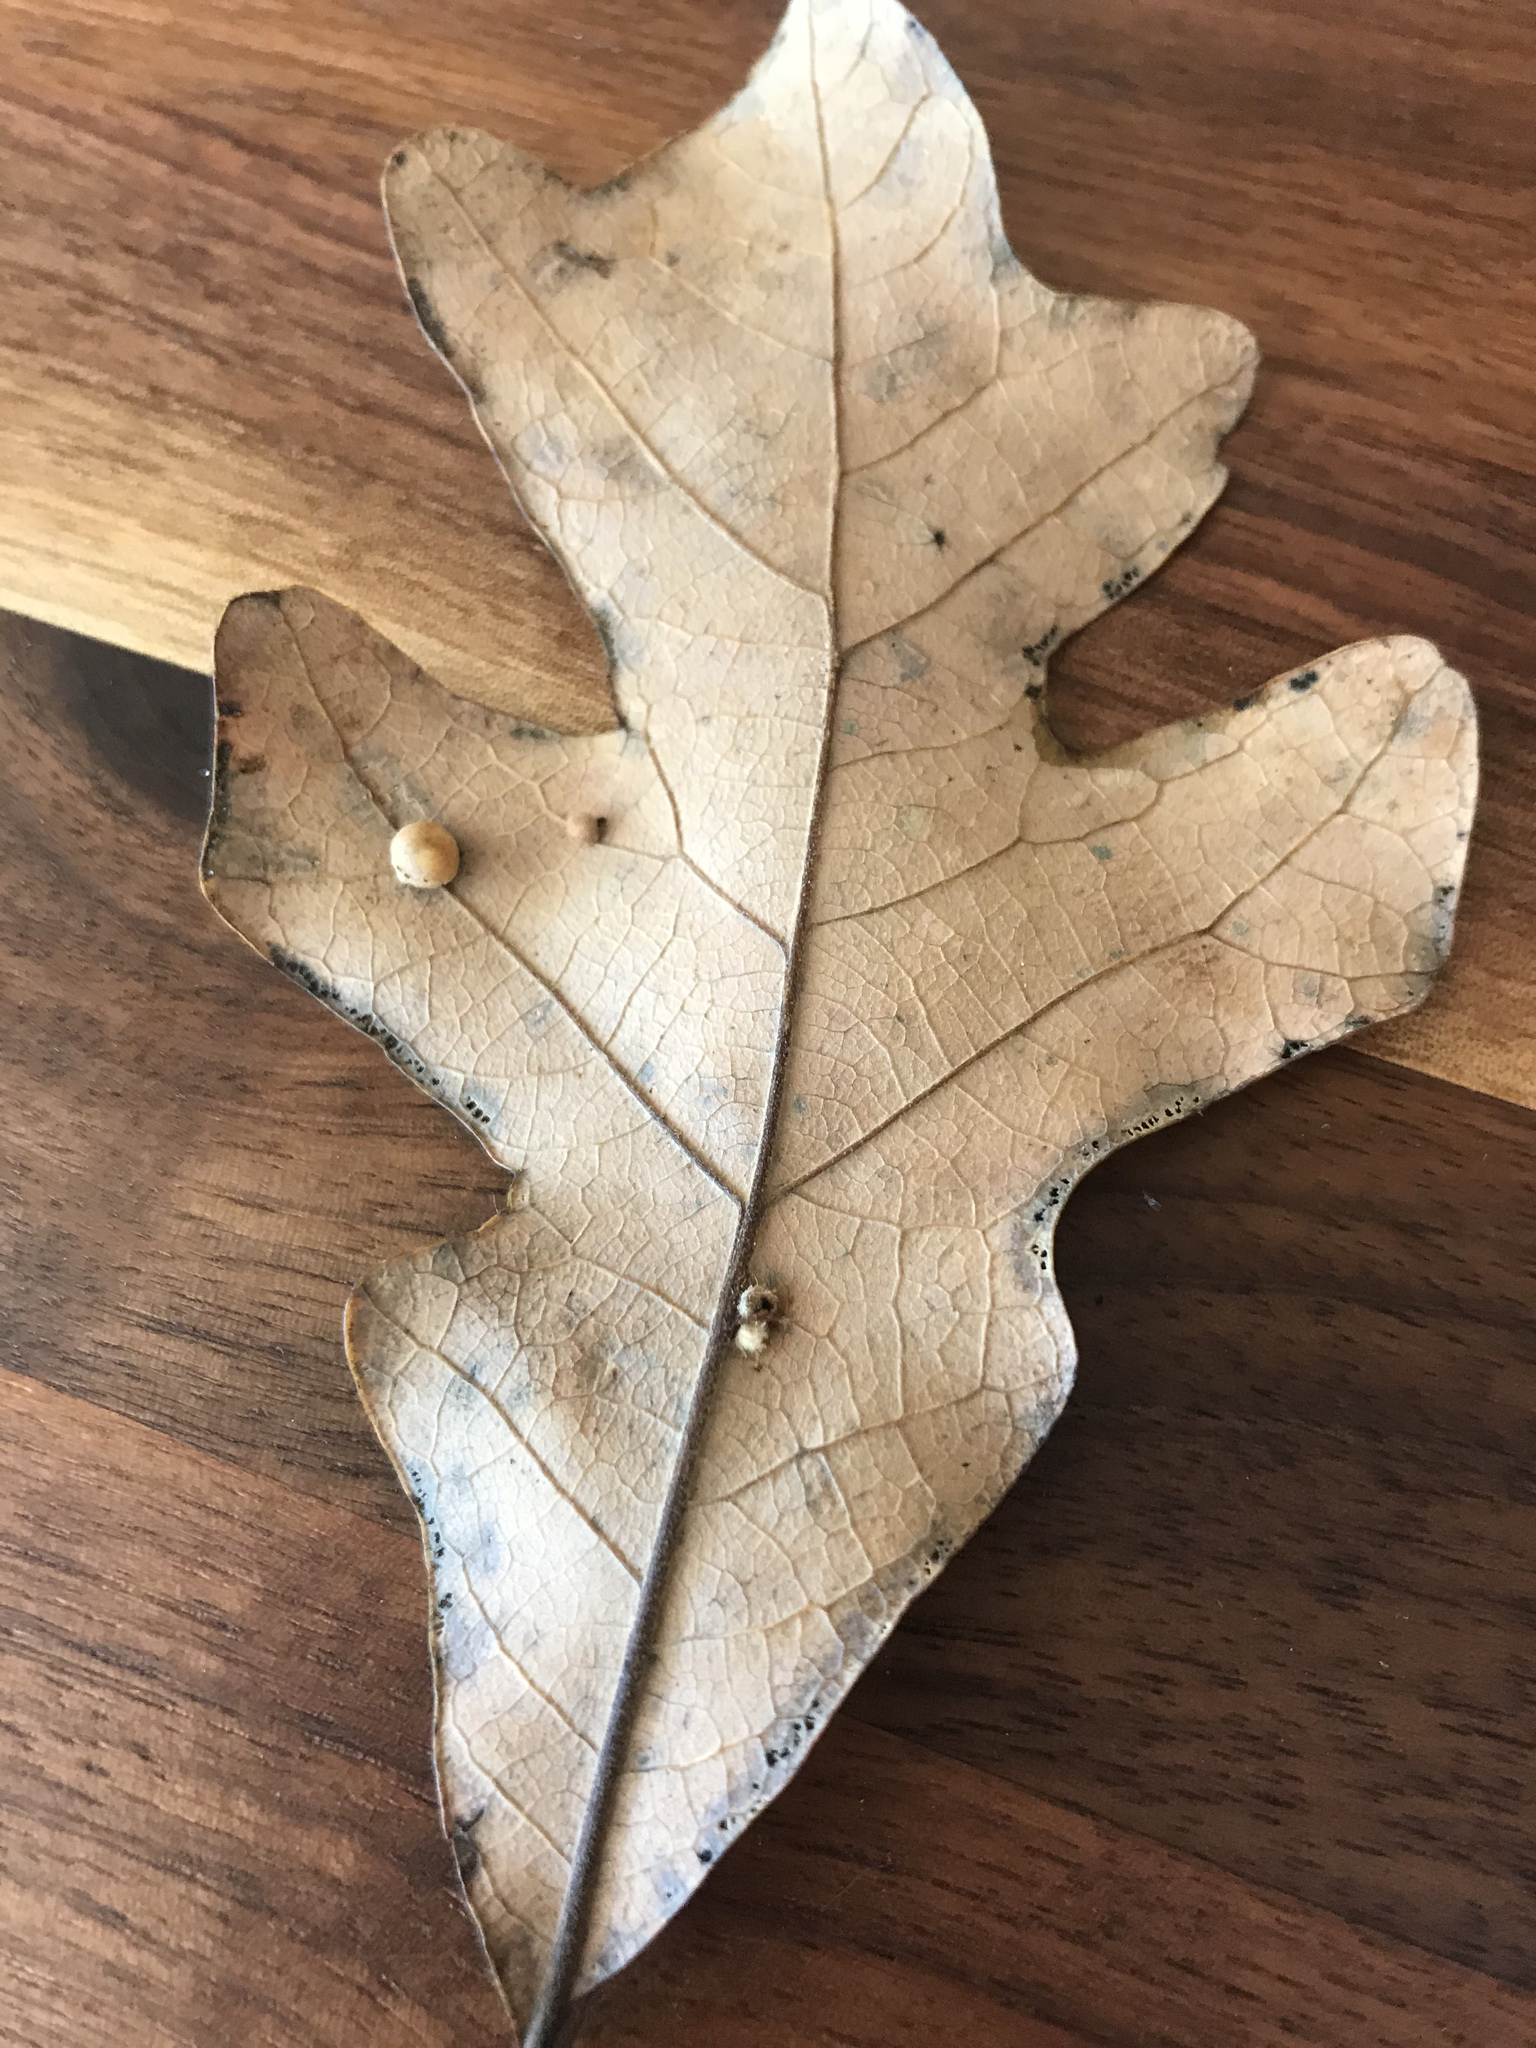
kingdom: Animalia
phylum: Arthropoda
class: Insecta
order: Hymenoptera
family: Cynipidae
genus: Atrusca
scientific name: Atrusca
